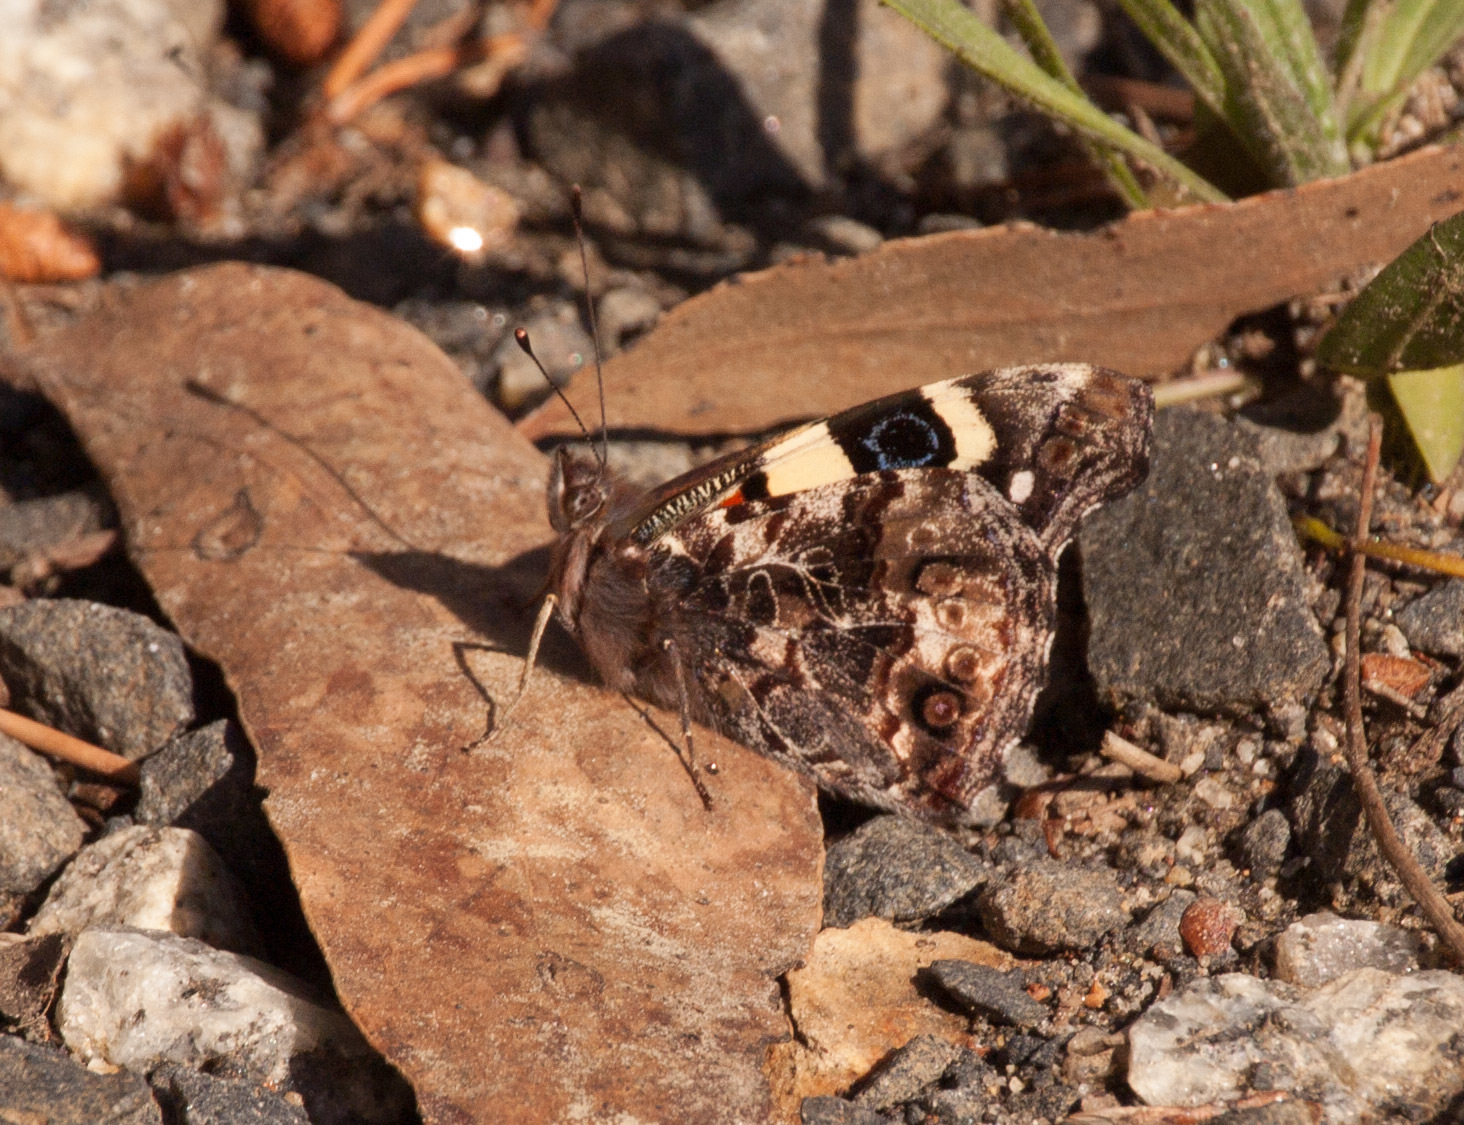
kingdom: Animalia
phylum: Arthropoda
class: Insecta
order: Lepidoptera
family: Nymphalidae
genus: Vanessa
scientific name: Vanessa itea
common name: Yellow admiral
